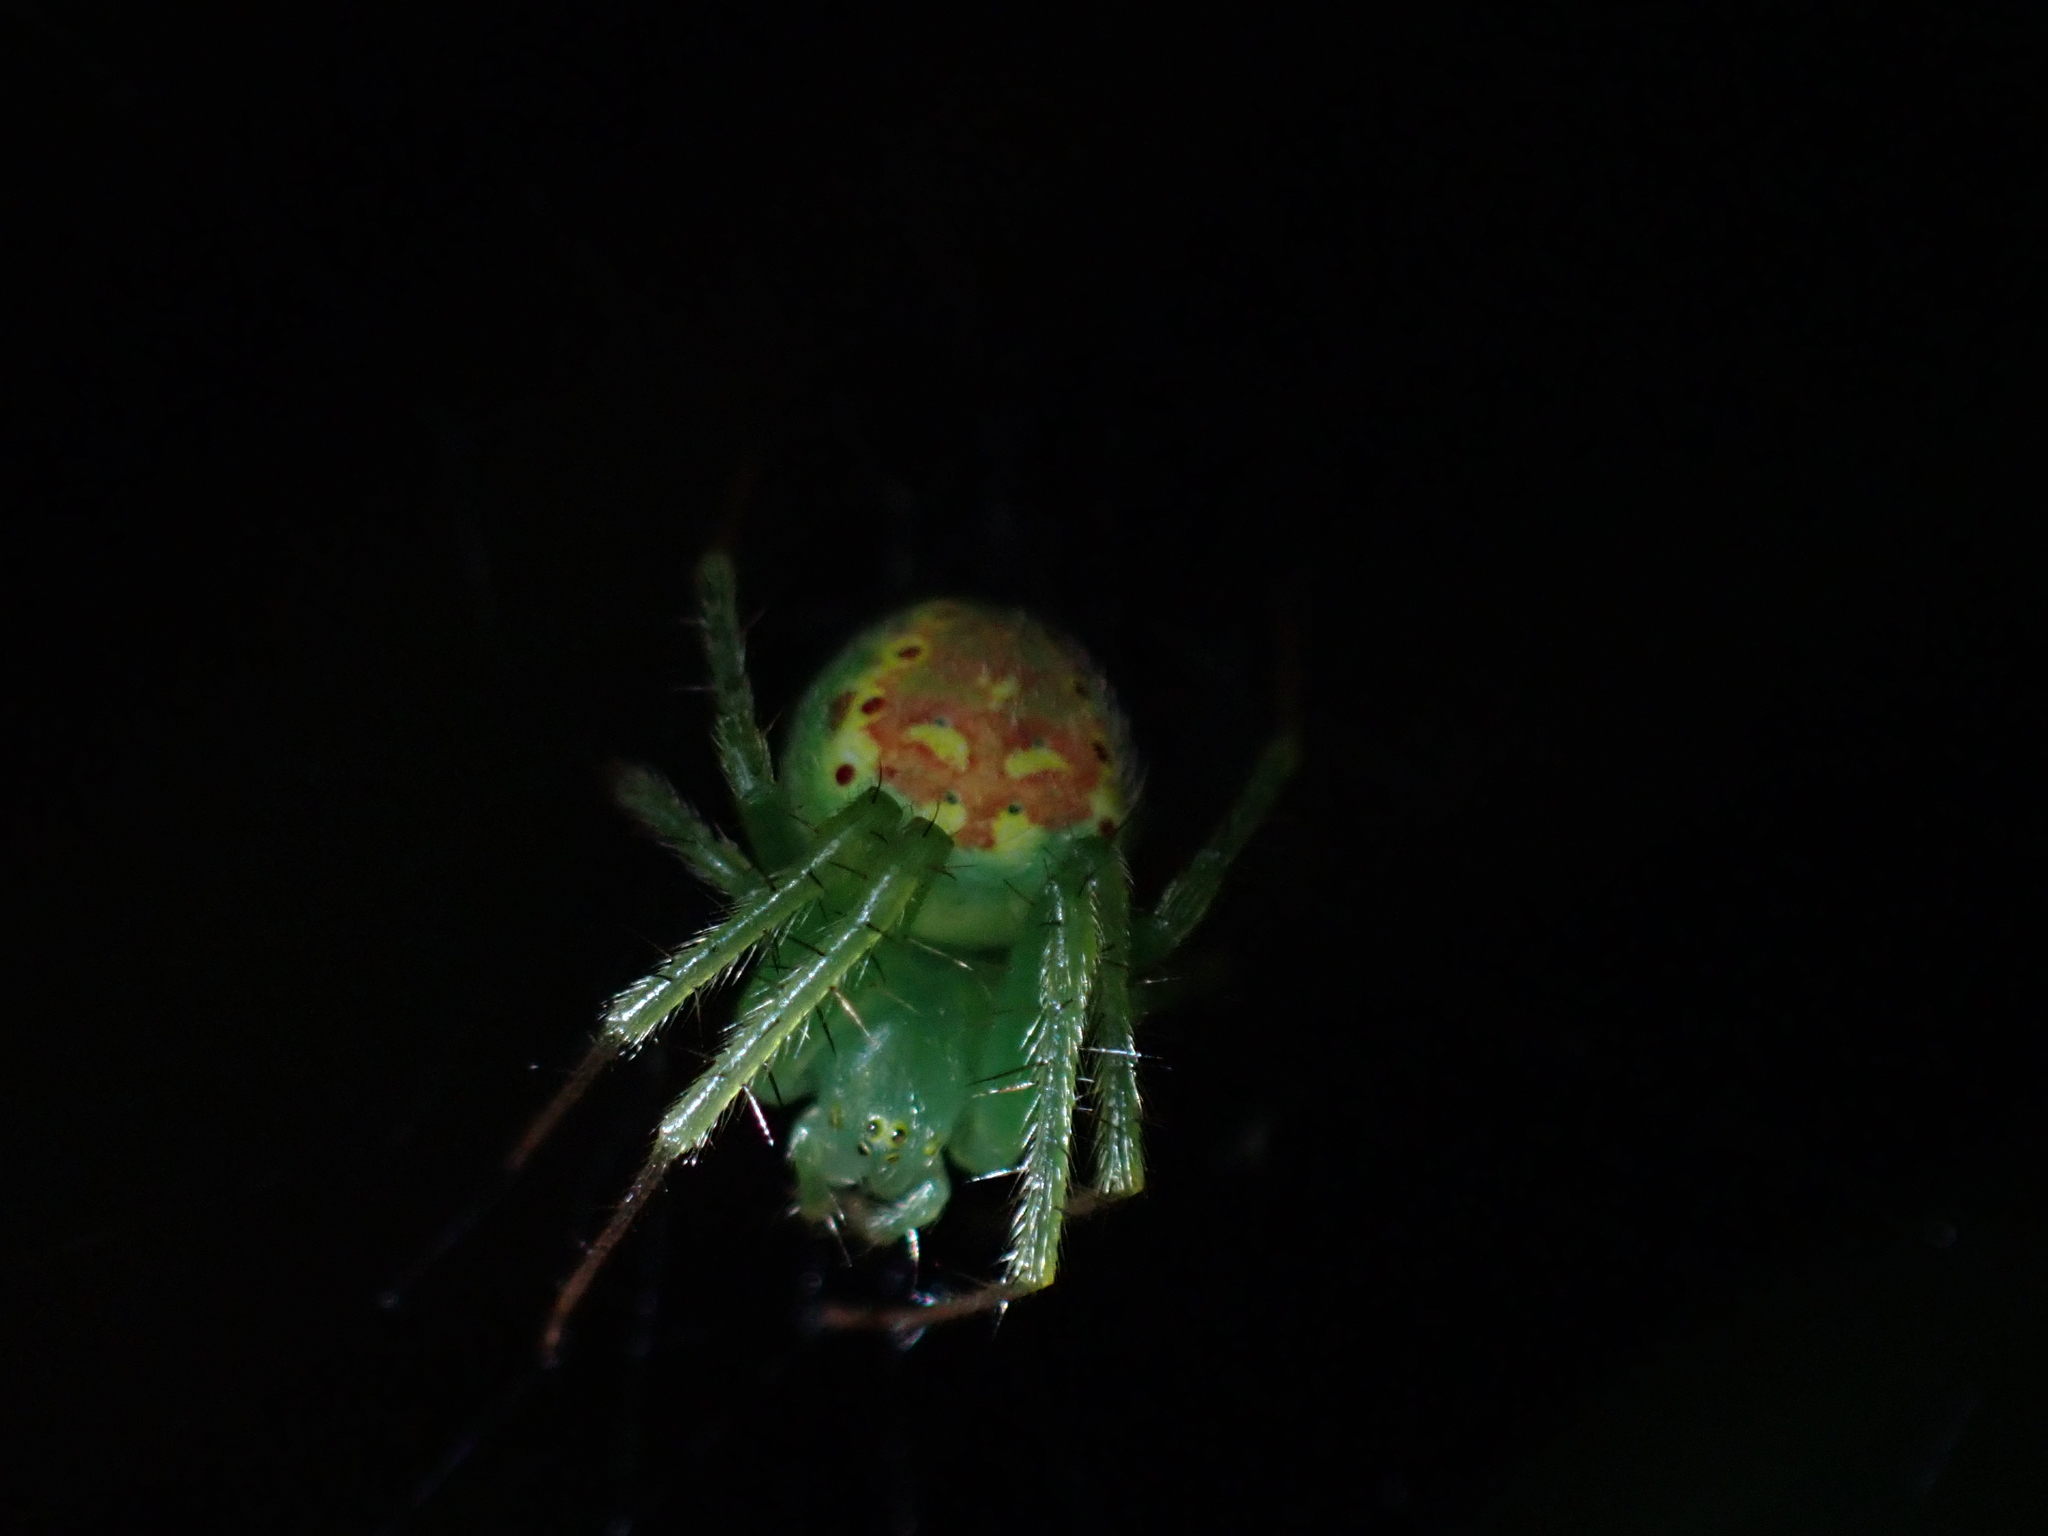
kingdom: Animalia
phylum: Arthropoda
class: Arachnida
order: Araneae
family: Araneidae
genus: Araneus
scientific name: Araneus cingulatus
